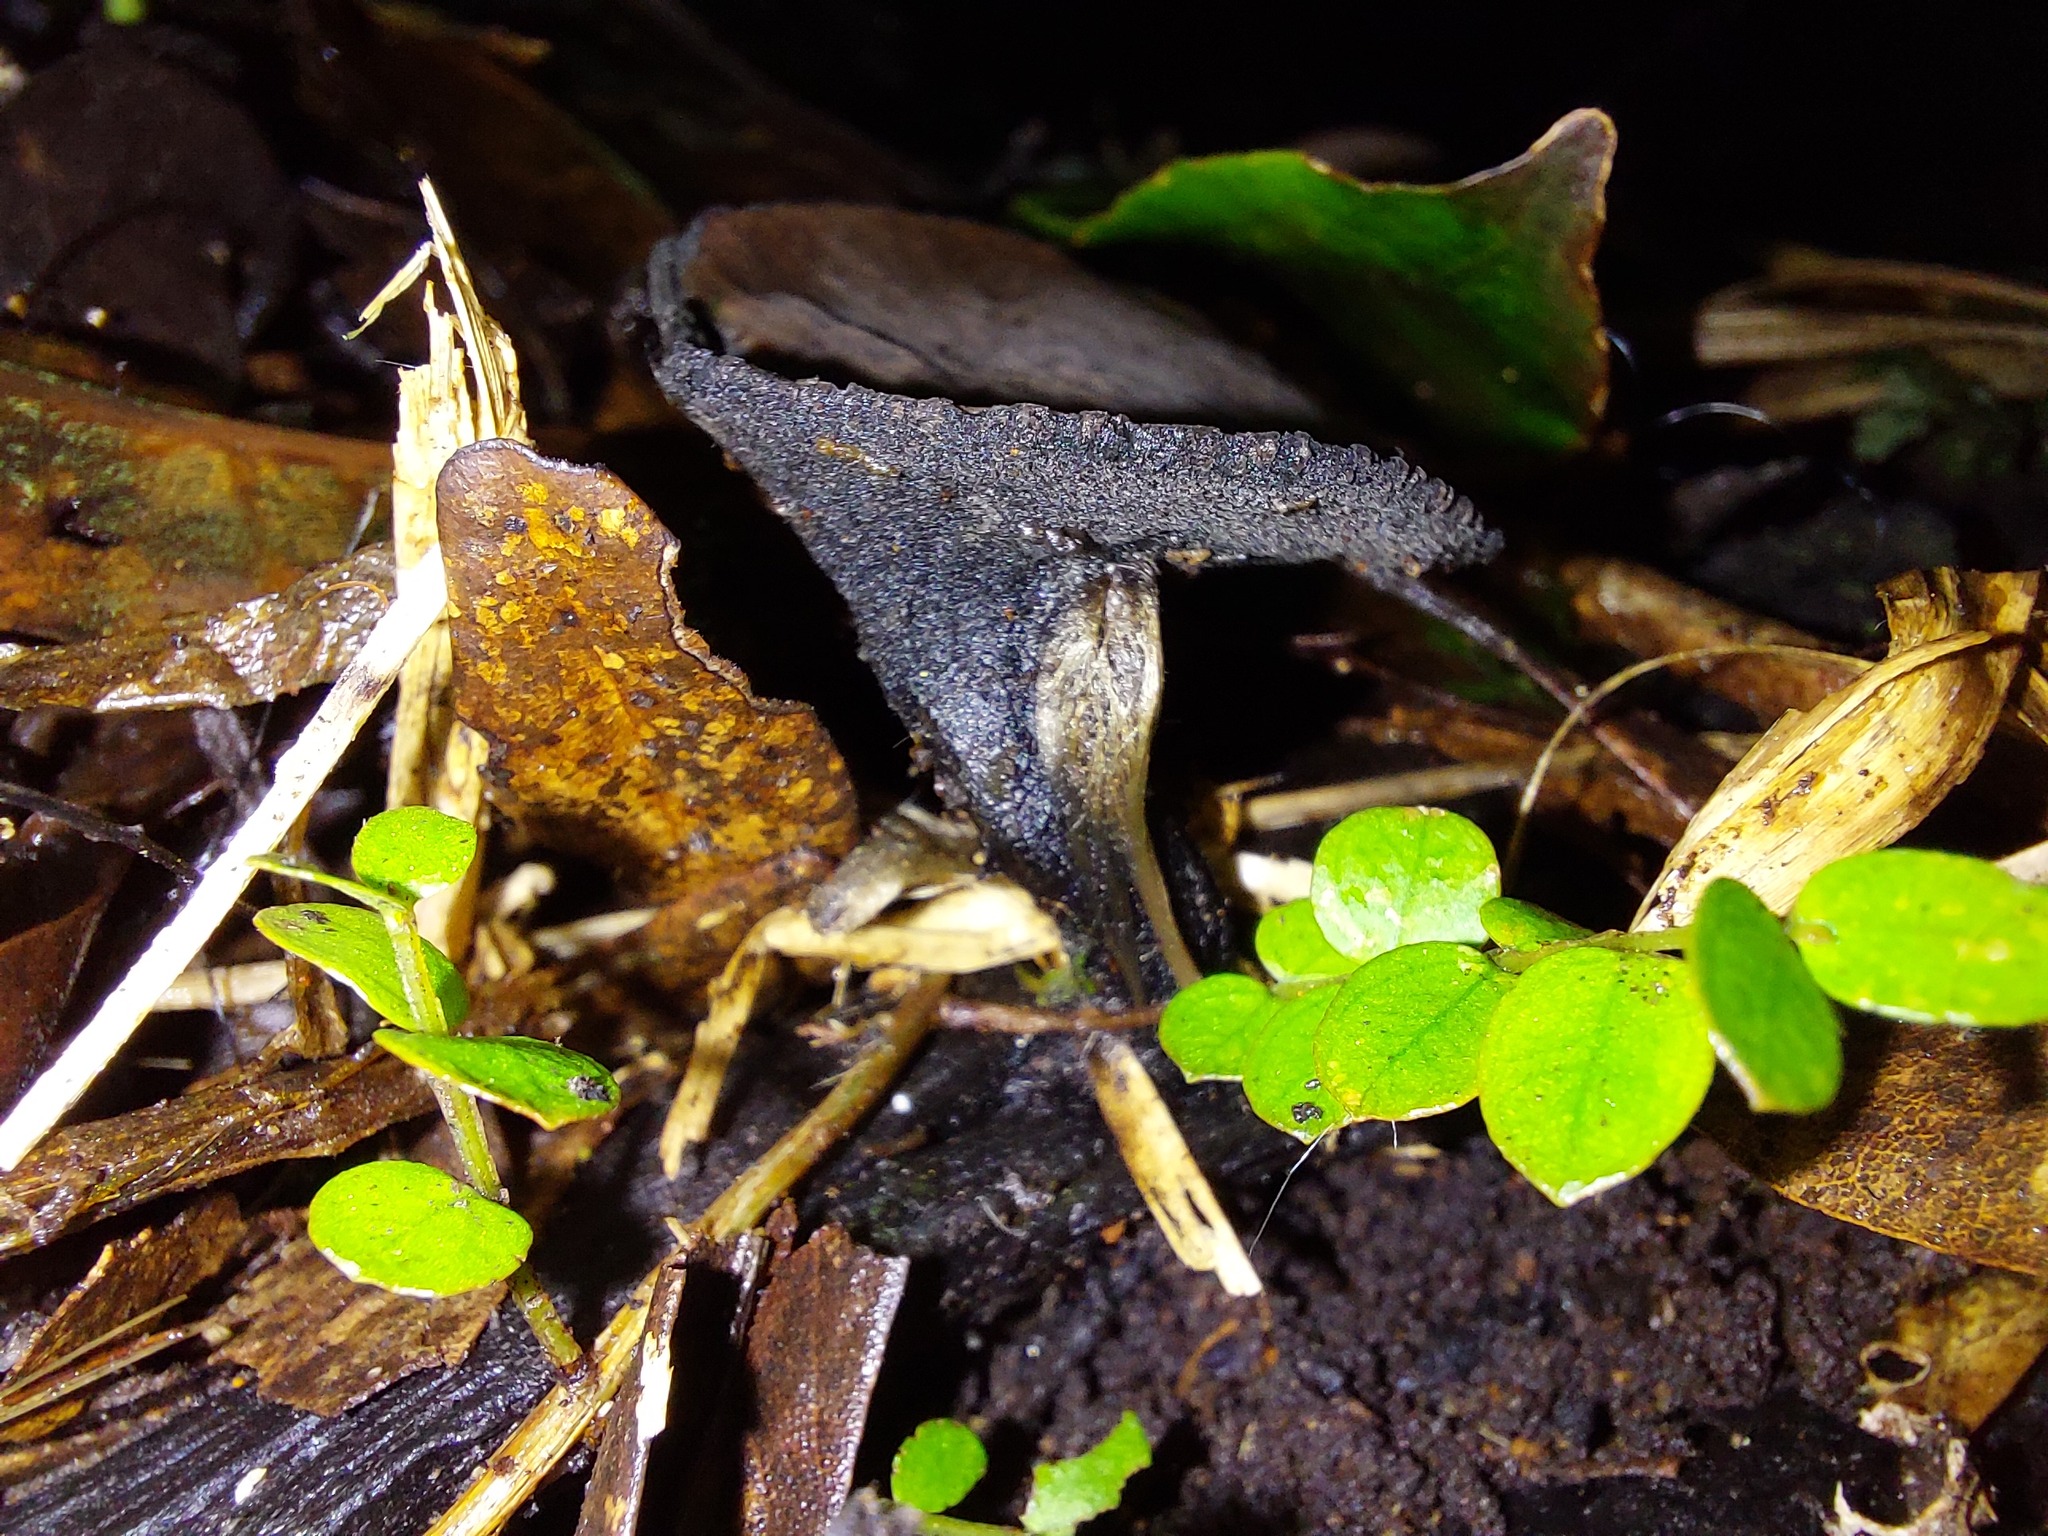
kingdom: Fungi
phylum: Ascomycota
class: Pezizomycetes
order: Pezizales
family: Sarcosomataceae
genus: Plectania
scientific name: Plectania campylospora
